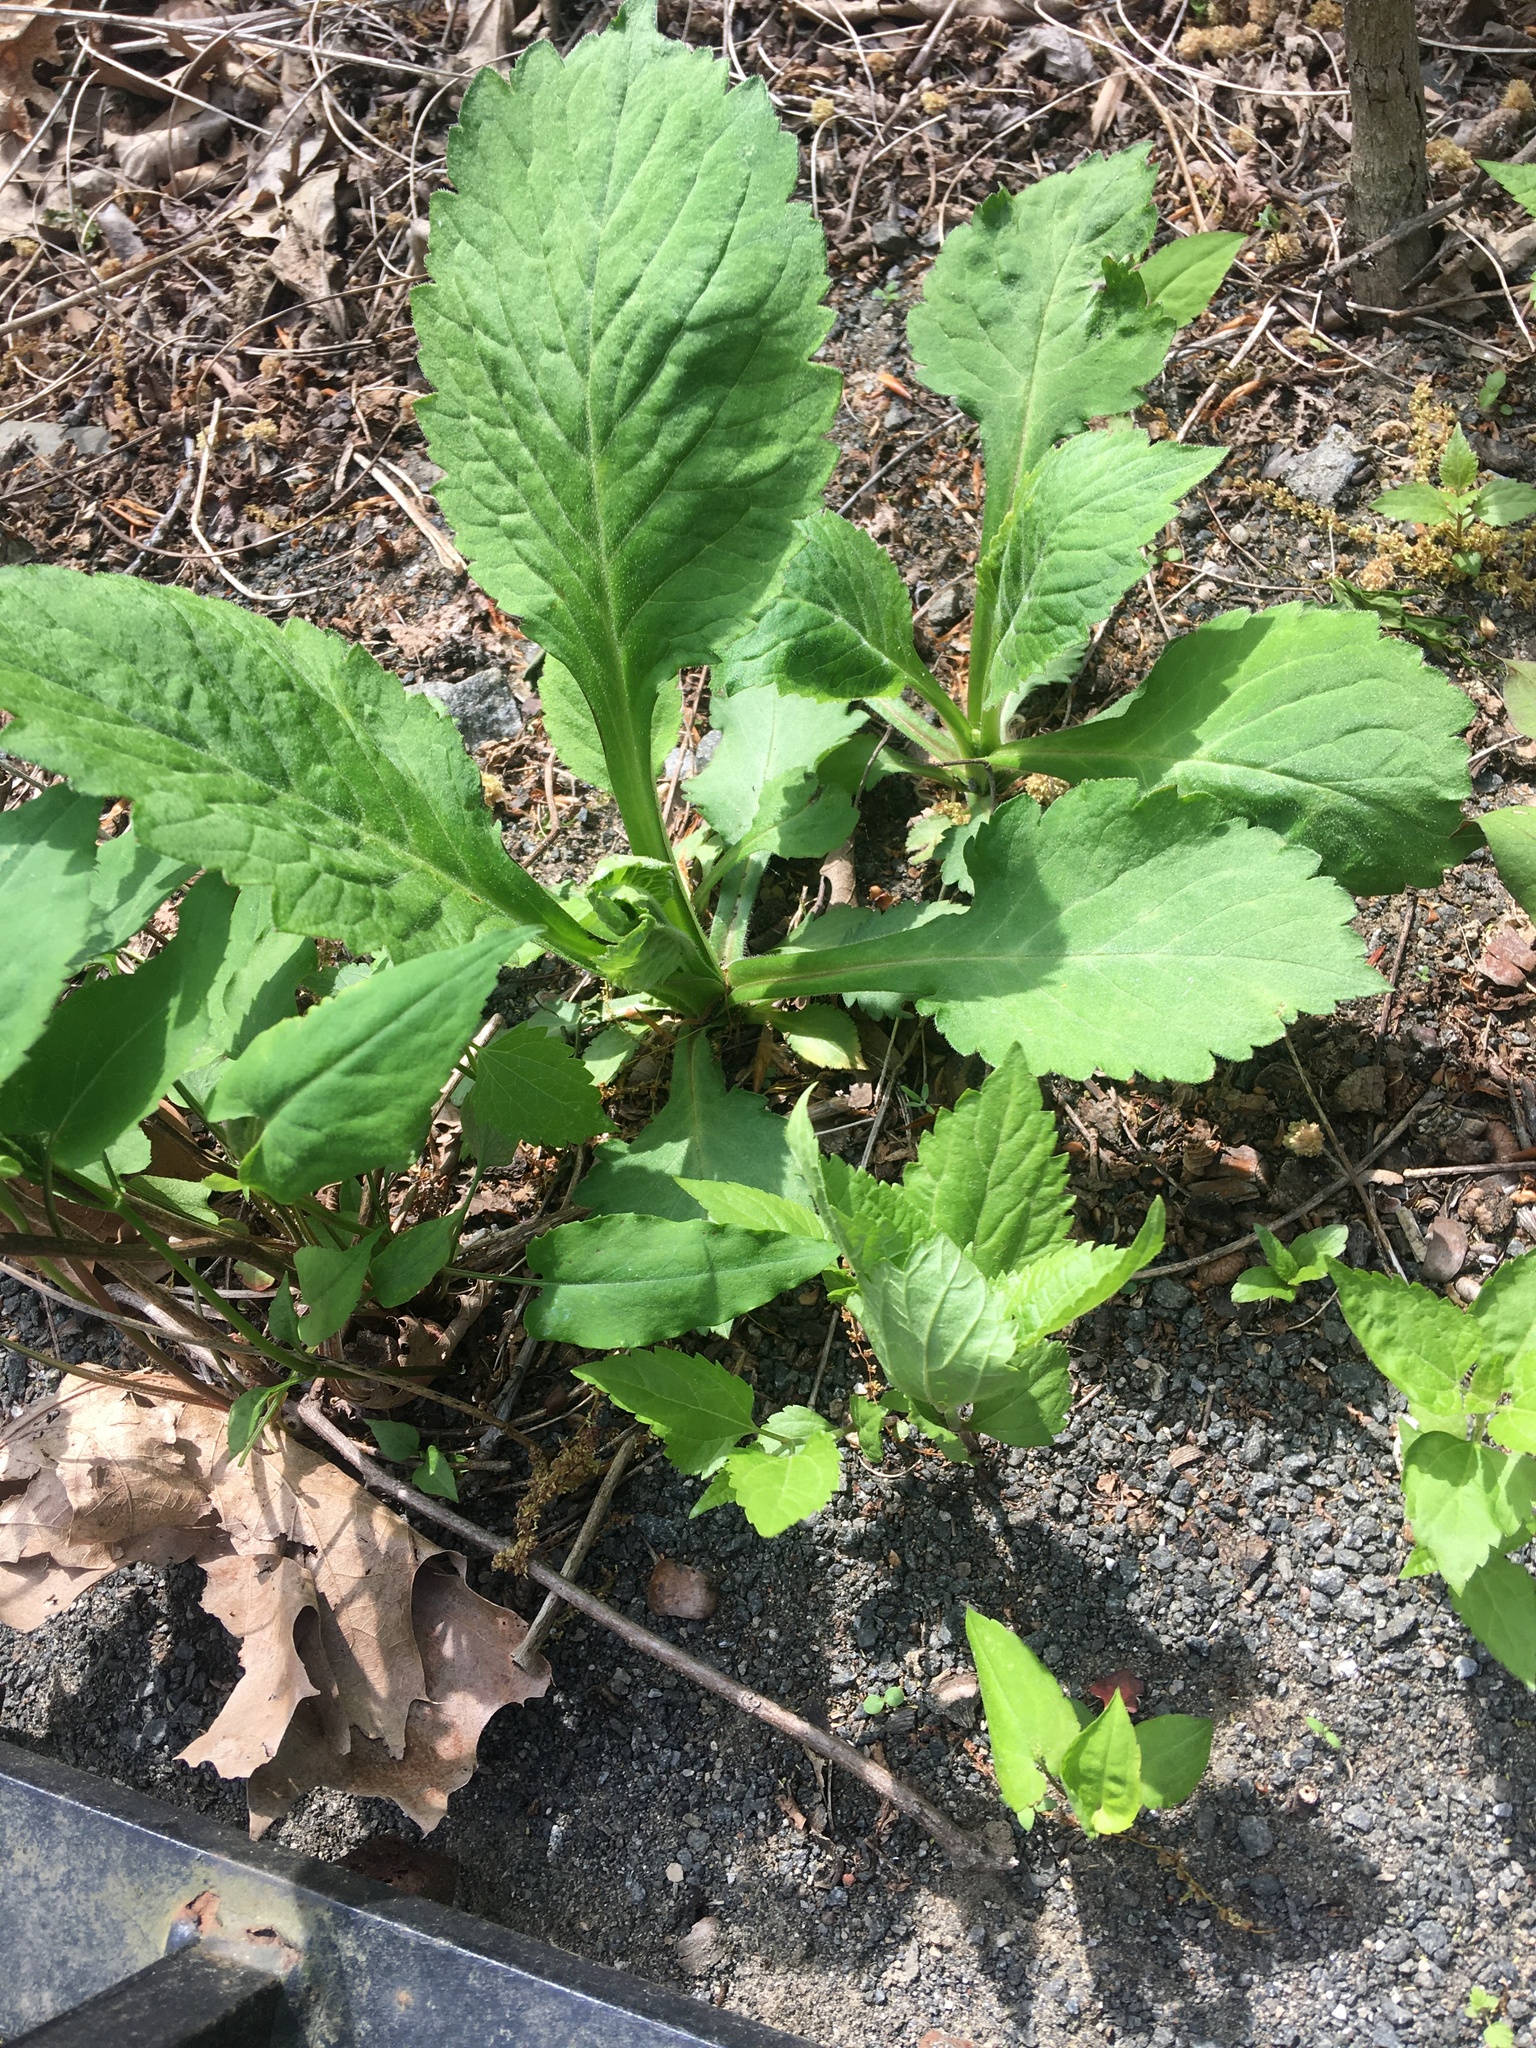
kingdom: Plantae
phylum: Tracheophyta
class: Magnoliopsida
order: Dipsacales
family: Caprifoliaceae
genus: Patrinia
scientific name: Patrinia villosa
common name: Patrinia
